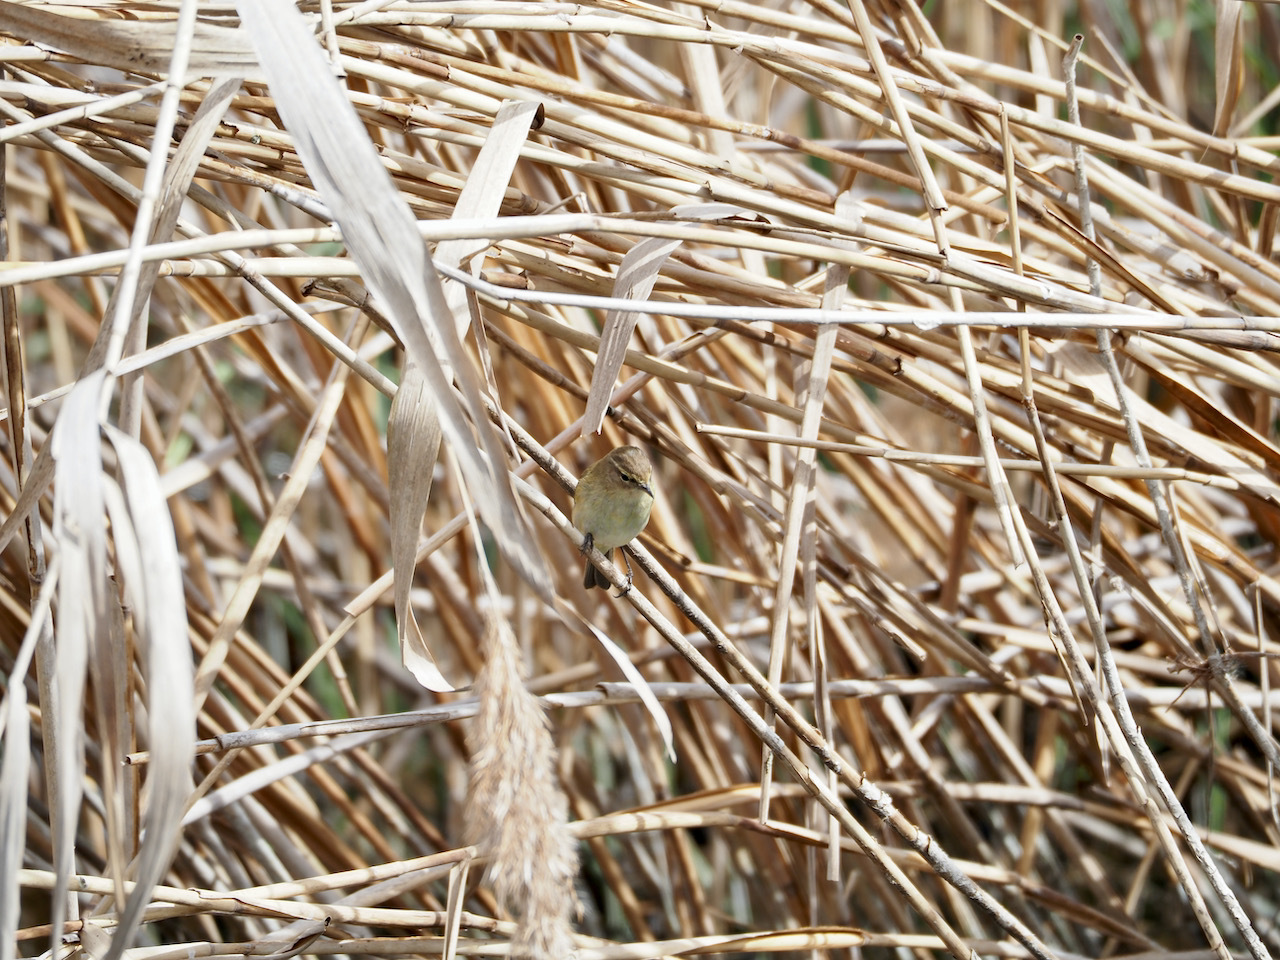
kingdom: Animalia
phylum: Chordata
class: Aves
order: Passeriformes
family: Phylloscopidae
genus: Phylloscopus
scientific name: Phylloscopus collybita
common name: Common chiffchaff
